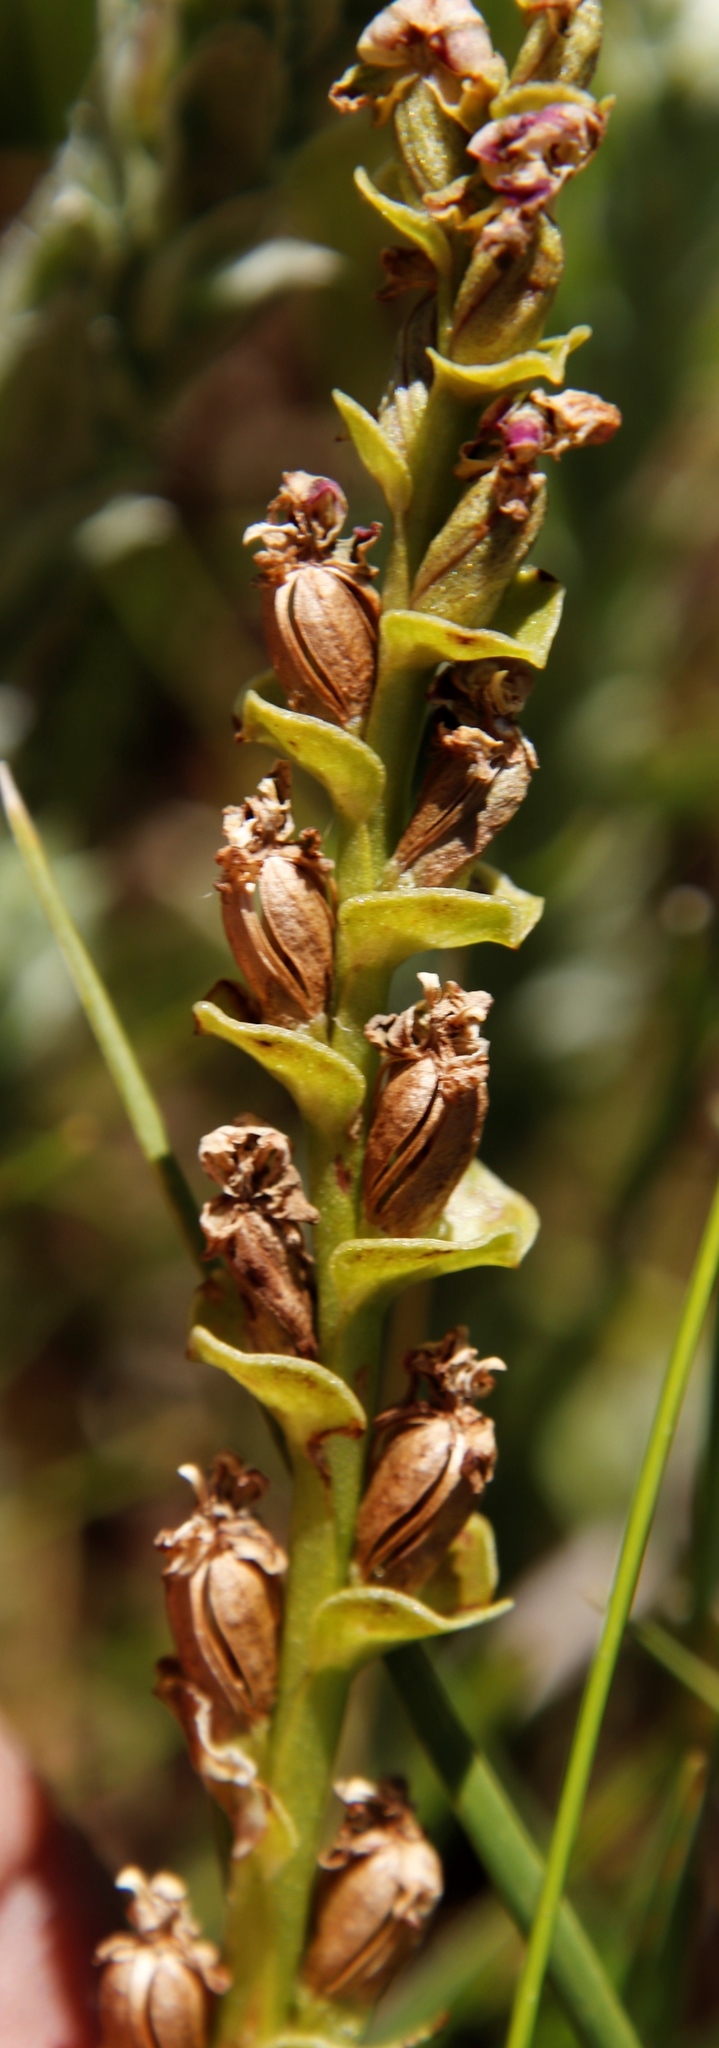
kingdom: Plantae
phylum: Tracheophyta
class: Liliopsida
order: Asparagales
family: Orchidaceae
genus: Disperis
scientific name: Disperis cardiophora
